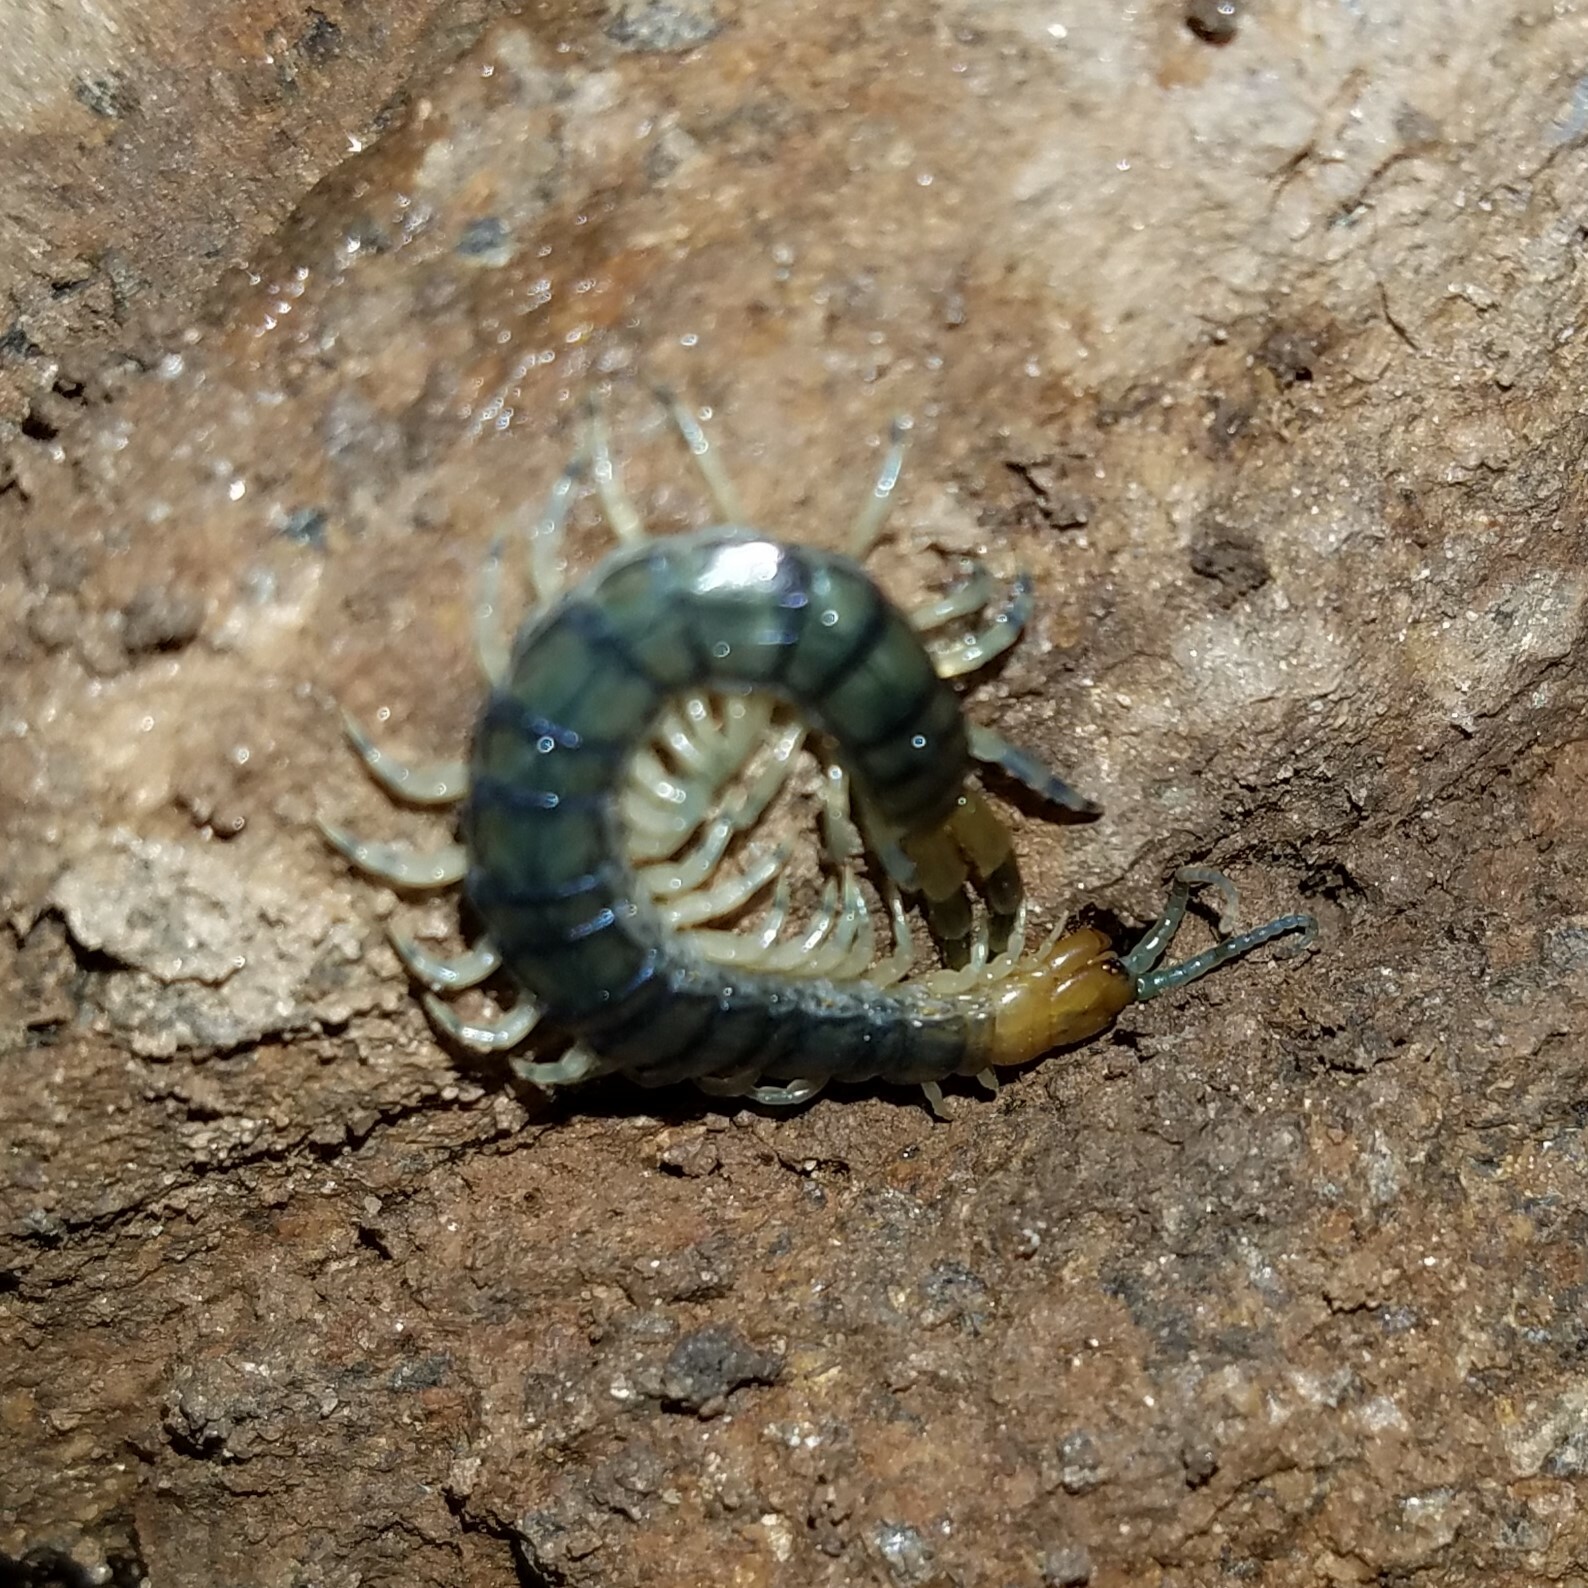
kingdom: Animalia
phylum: Arthropoda
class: Chilopoda
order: Scolopendromorpha
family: Scolopendridae
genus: Hemiscolopendra
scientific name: Hemiscolopendra marginata
